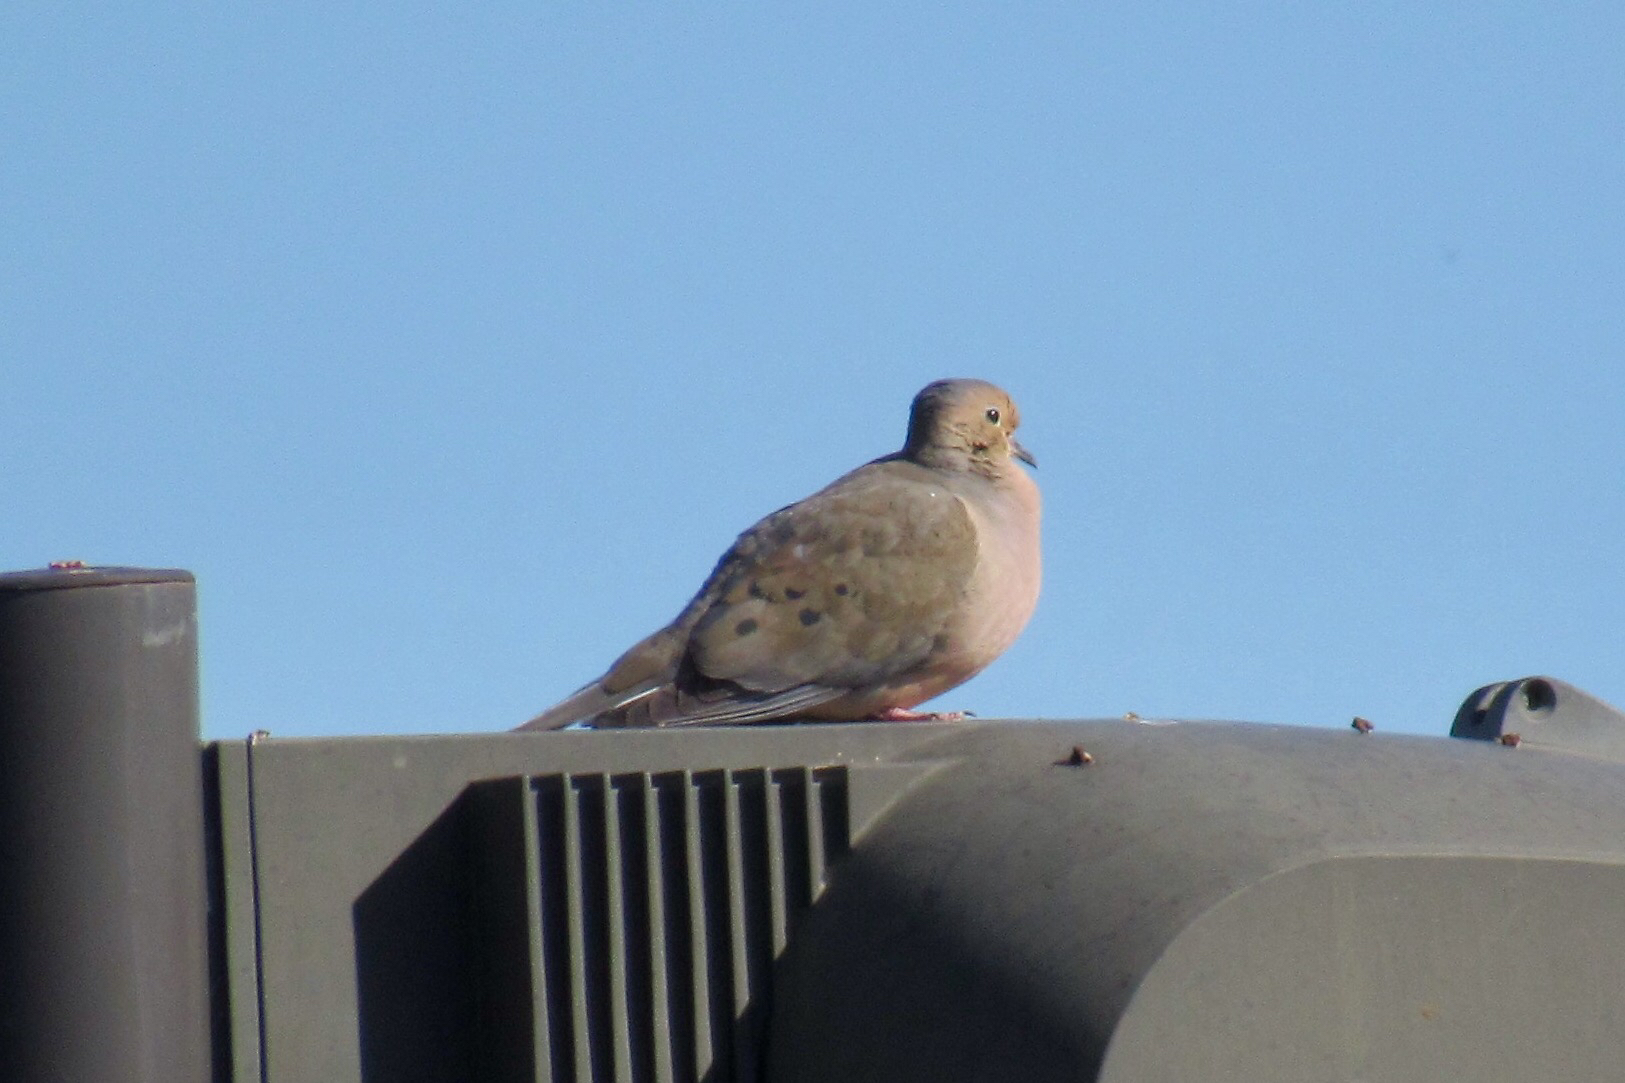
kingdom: Animalia
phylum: Chordata
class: Aves
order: Columbiformes
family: Columbidae
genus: Zenaida
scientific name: Zenaida macroura
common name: Mourning dove
